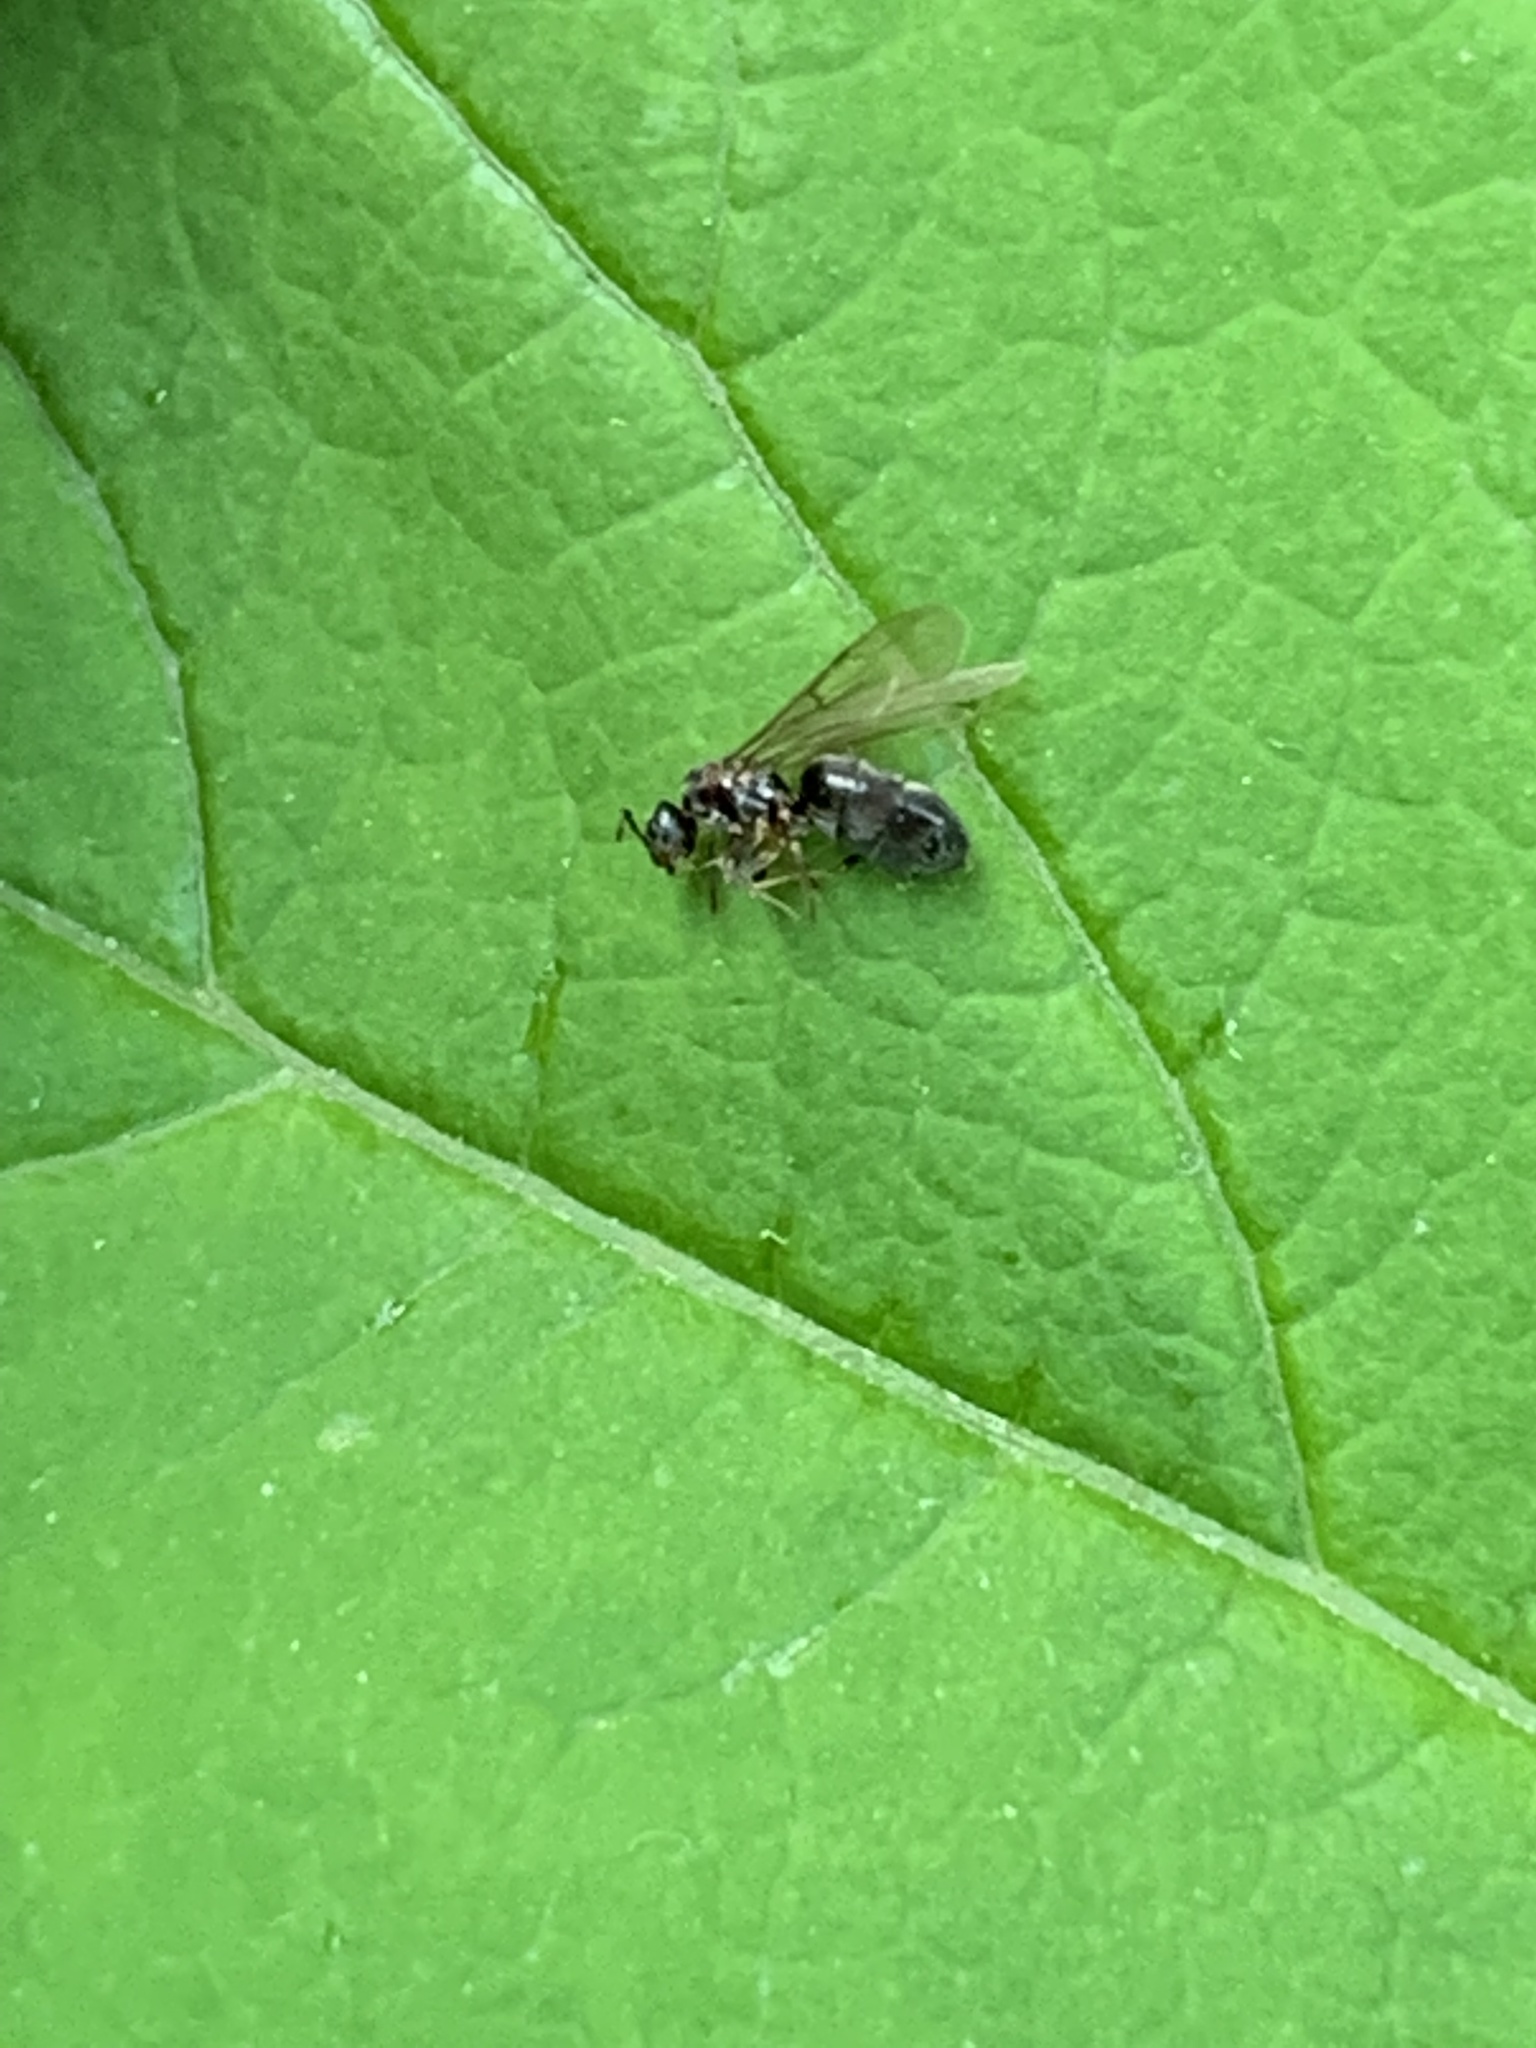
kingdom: Animalia
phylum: Arthropoda
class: Insecta
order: Hymenoptera
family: Formicidae
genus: Paratrechina
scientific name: Paratrechina flavipes
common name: Eastern asian formicine ant
